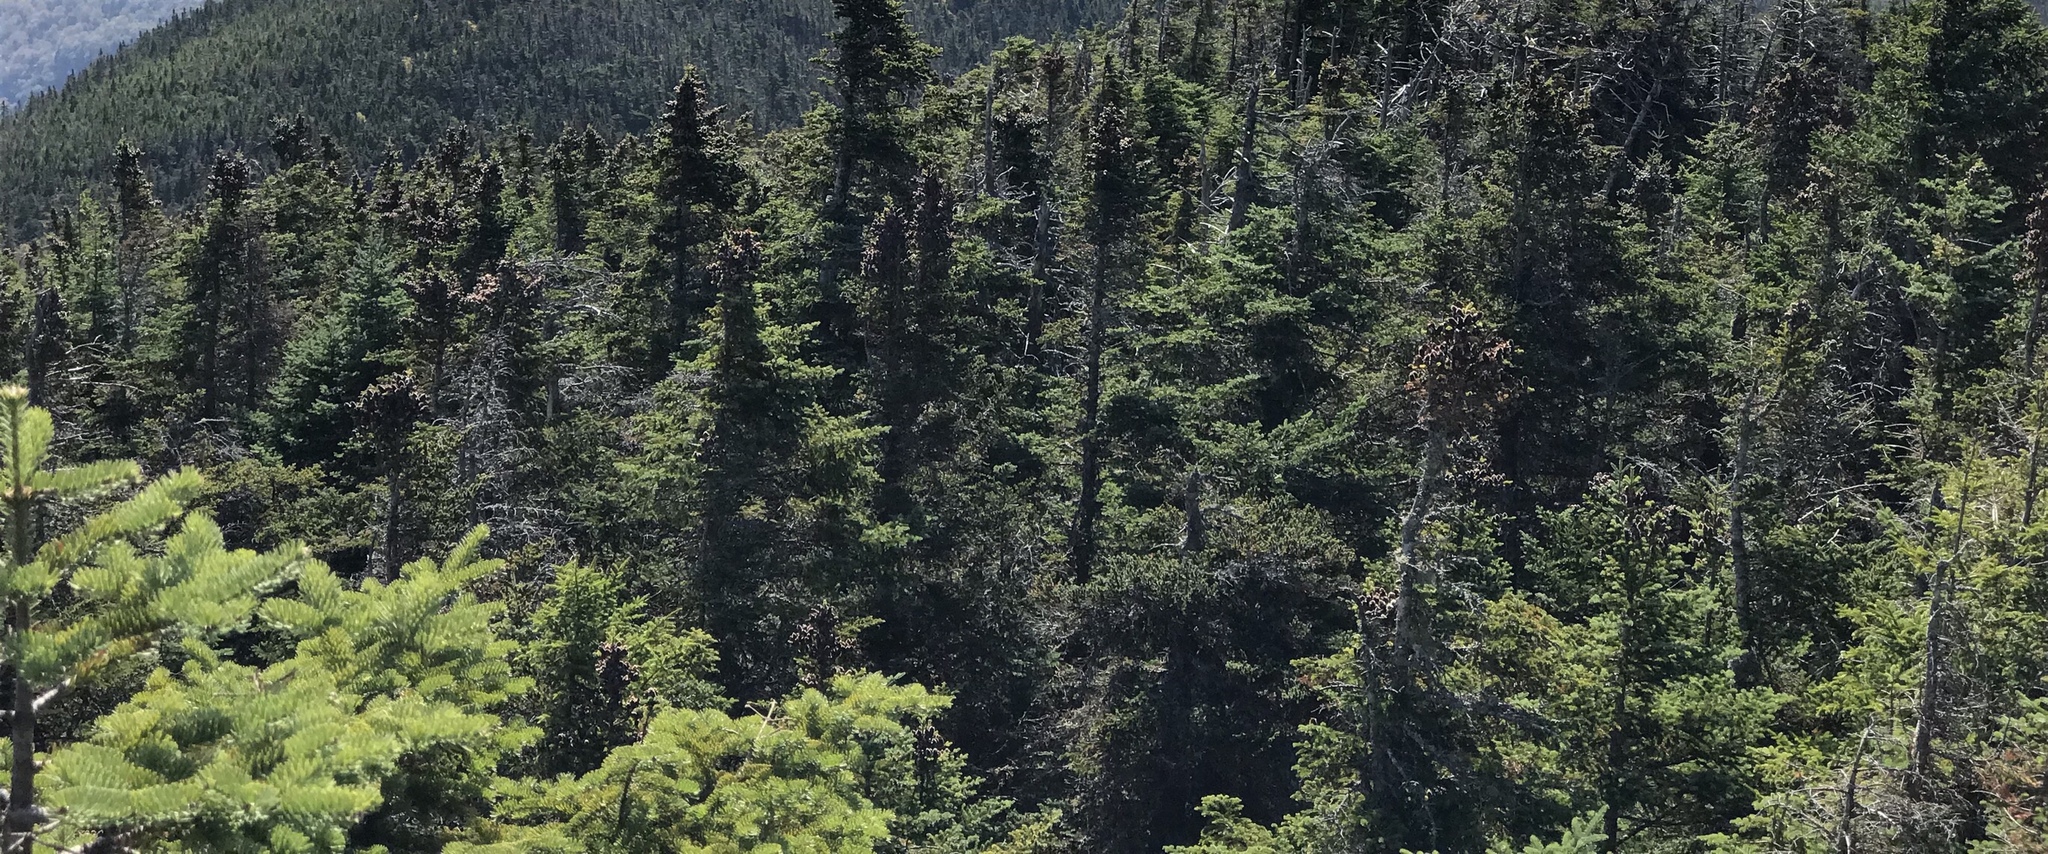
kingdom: Plantae
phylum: Tracheophyta
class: Pinopsida
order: Pinales
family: Pinaceae
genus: Abies
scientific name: Abies balsamea
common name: Balsam fir
